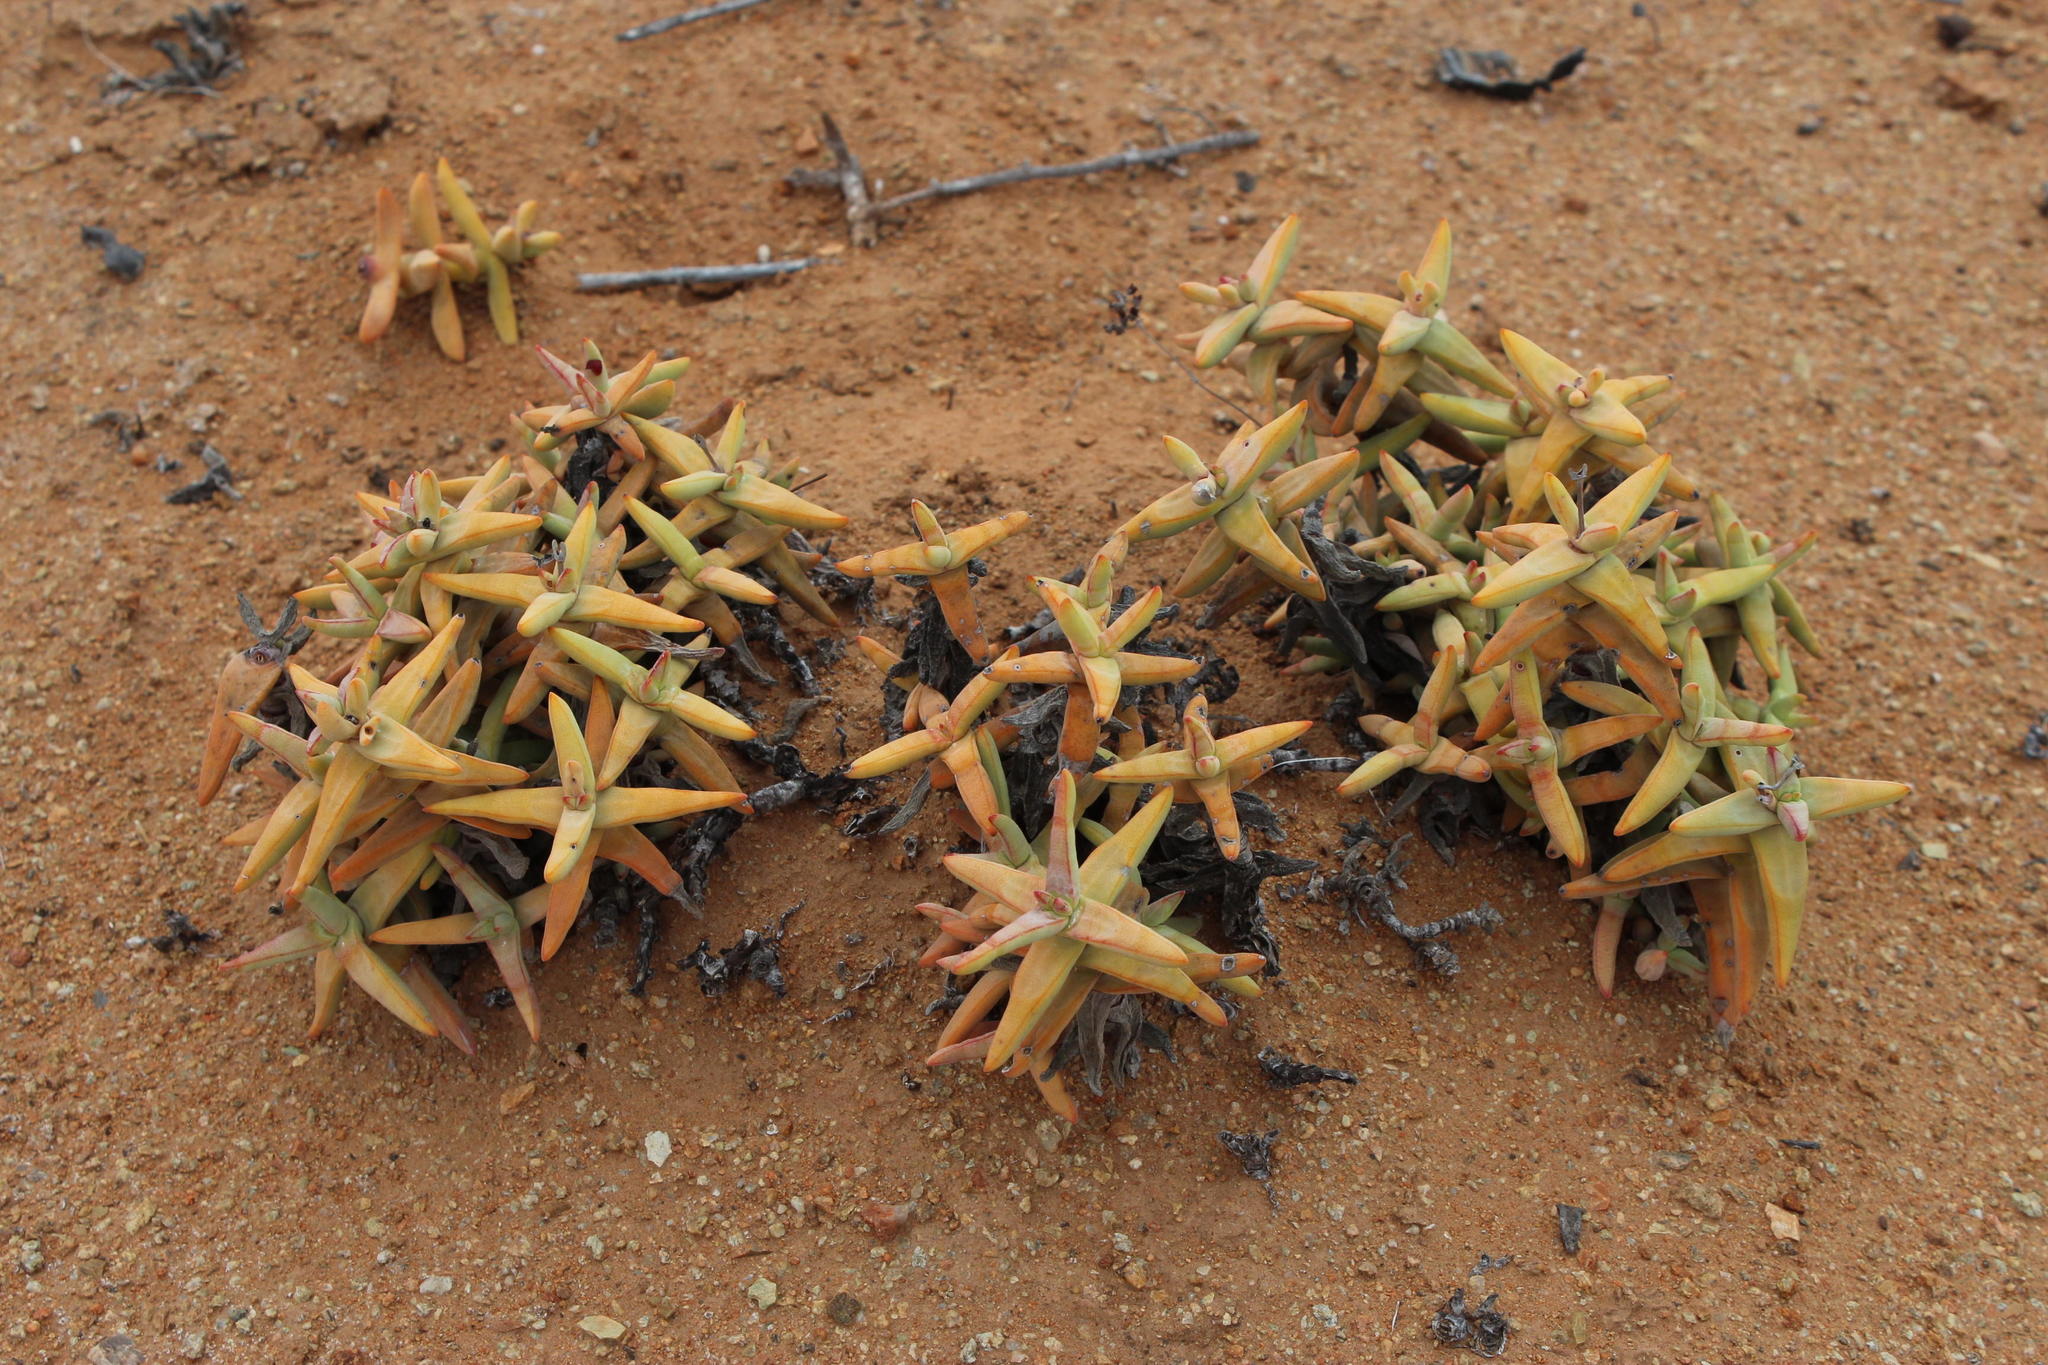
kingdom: Plantae
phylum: Tracheophyta
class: Magnoliopsida
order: Saxifragales
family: Crassulaceae
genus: Crassula
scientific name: Crassula grisea
